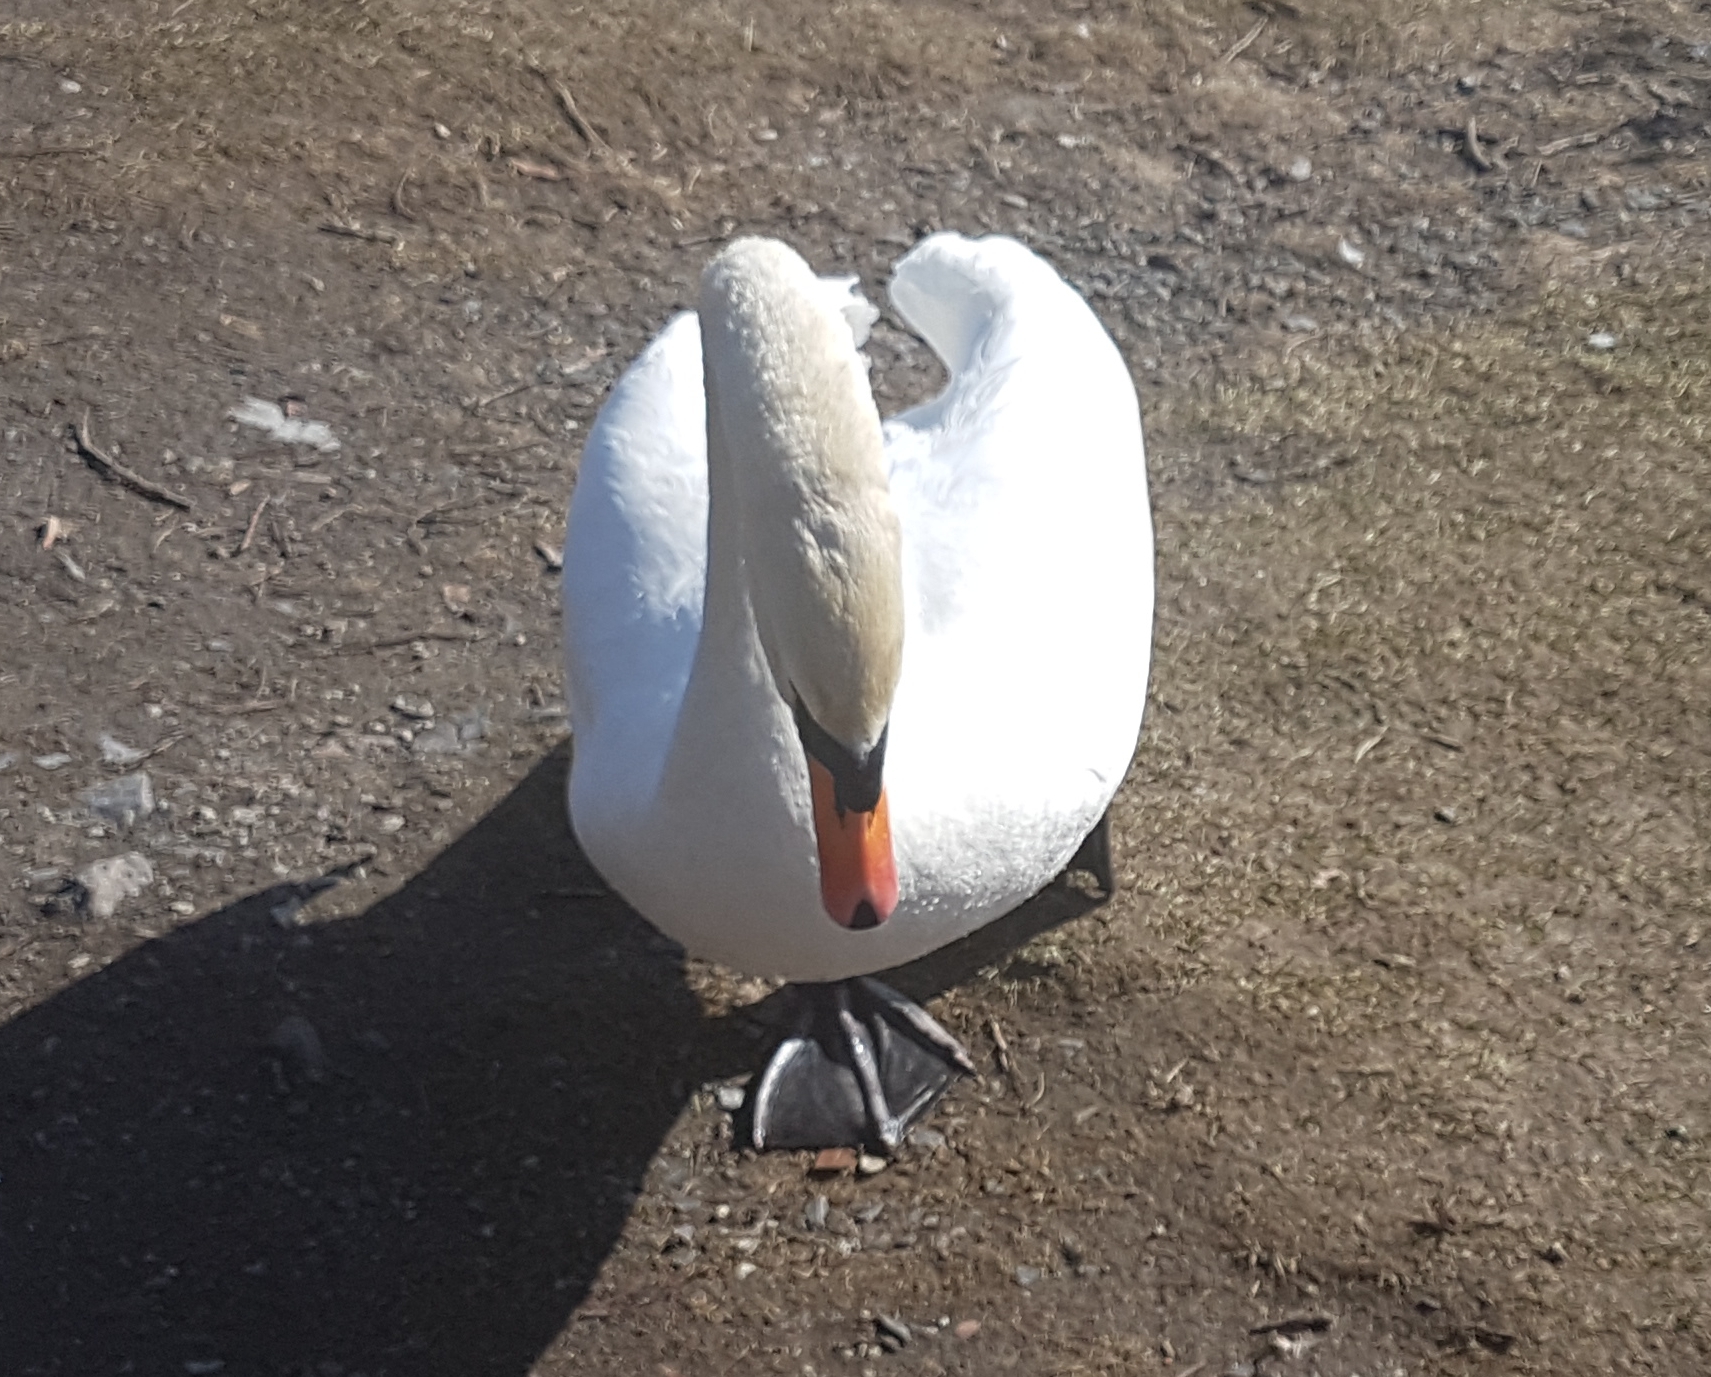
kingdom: Animalia
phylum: Chordata
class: Aves
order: Anseriformes
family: Anatidae
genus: Cygnus
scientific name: Cygnus olor
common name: Mute swan
